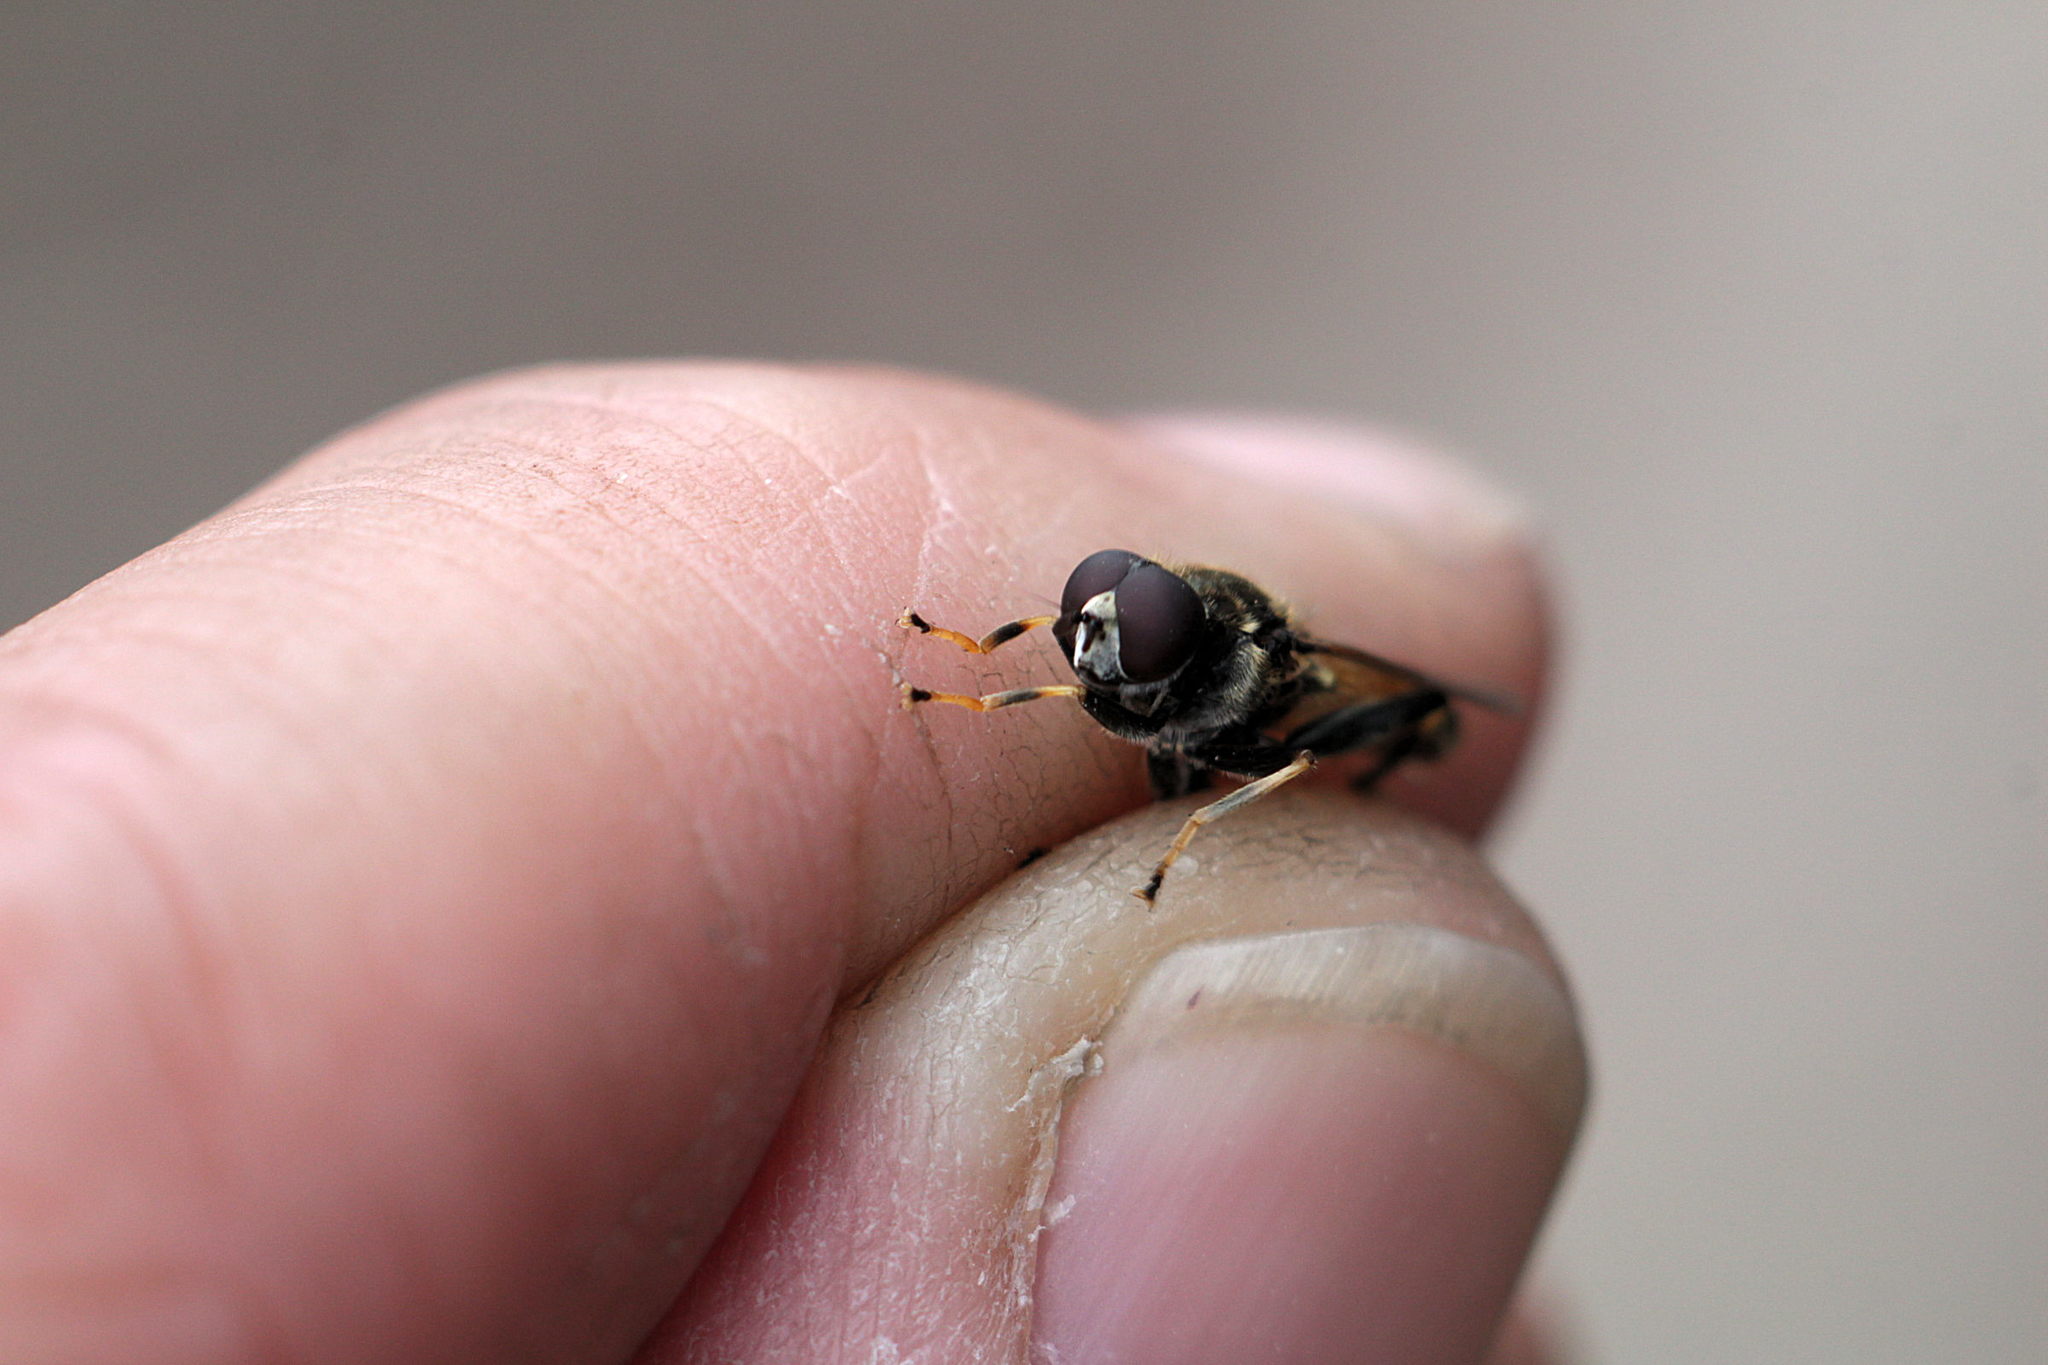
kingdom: Animalia
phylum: Arthropoda
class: Insecta
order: Diptera
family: Syrphidae
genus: Xylota
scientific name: Xylota segnis
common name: Brown-toed forest fly
